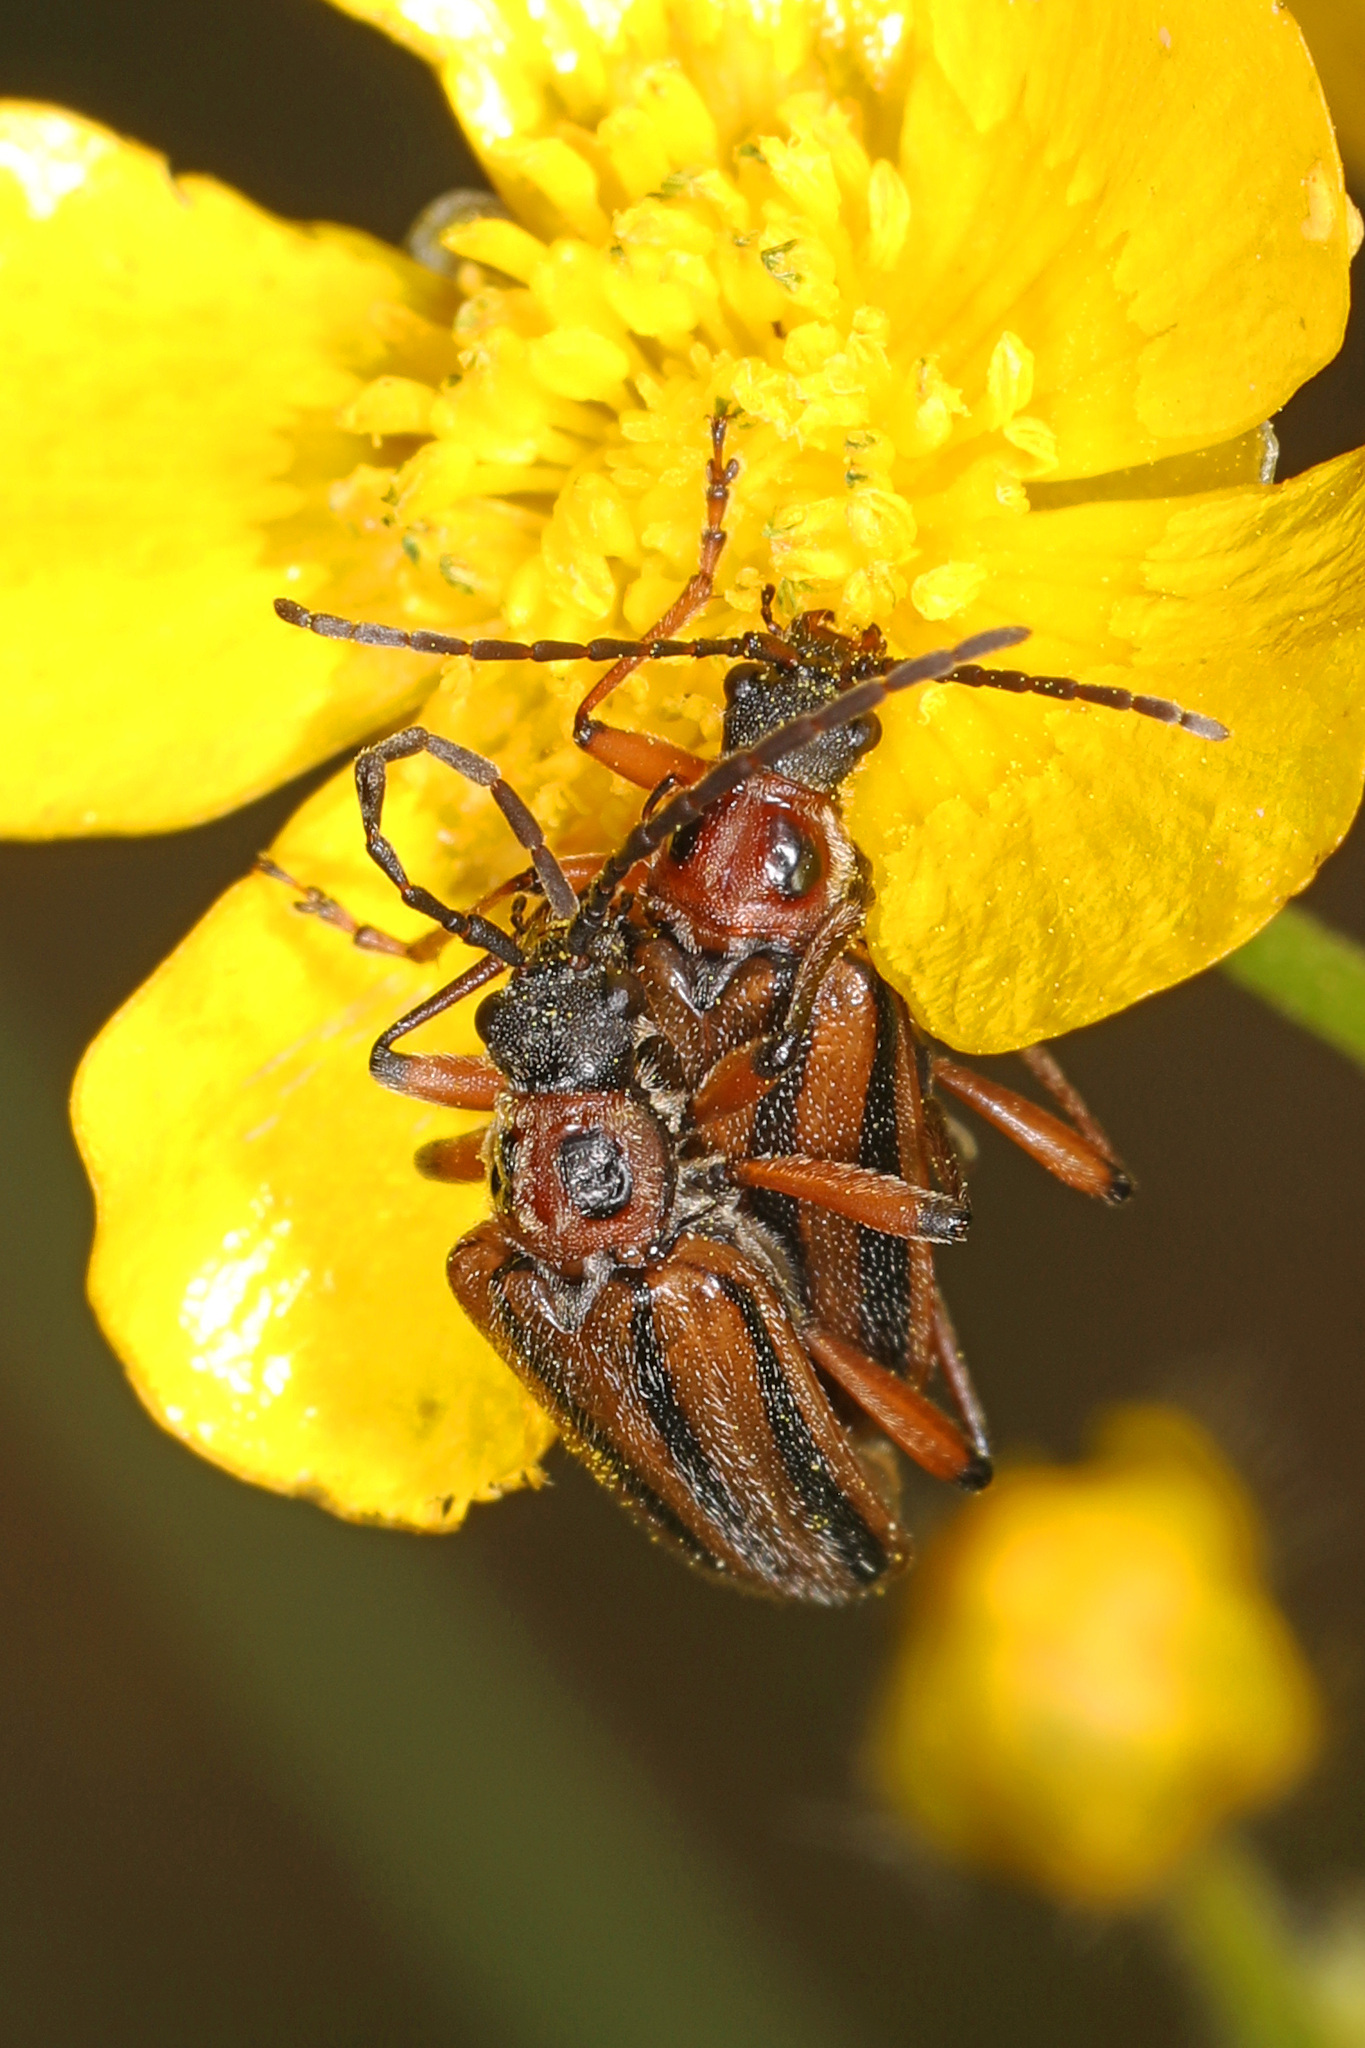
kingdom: Animalia
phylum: Arthropoda
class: Insecta
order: Coleoptera
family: Cerambycidae
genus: Brachysomida
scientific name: Brachysomida bivittata
